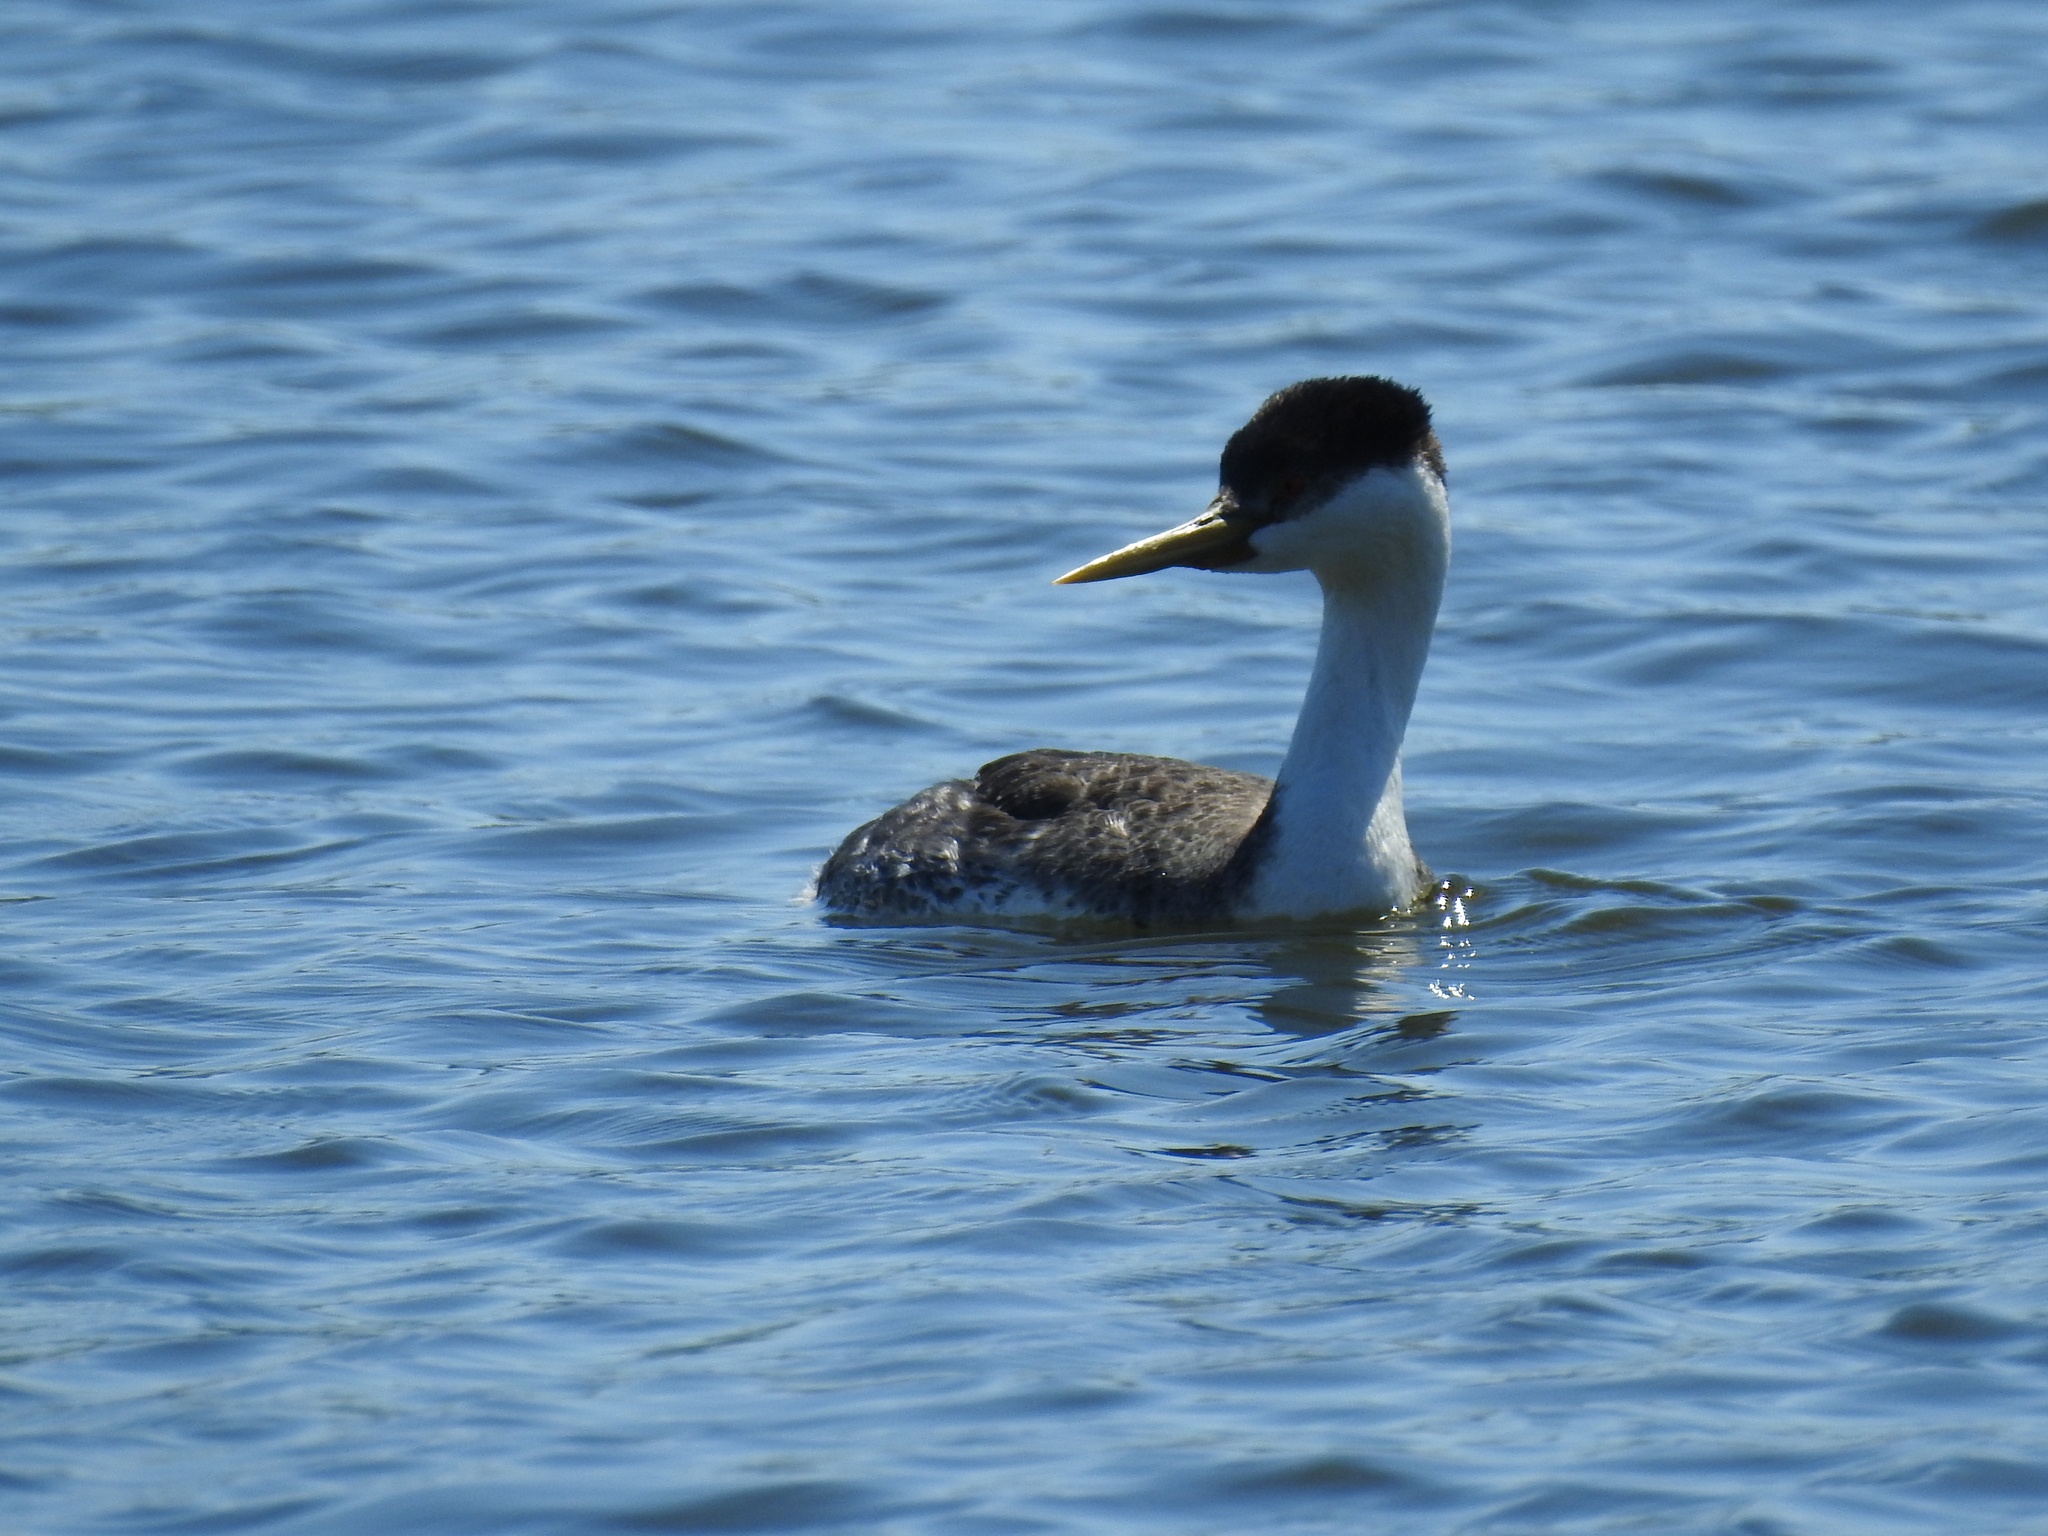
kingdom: Animalia
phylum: Chordata
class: Aves
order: Podicipediformes
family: Podicipedidae
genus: Aechmophorus
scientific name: Aechmophorus occidentalis
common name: Western grebe
